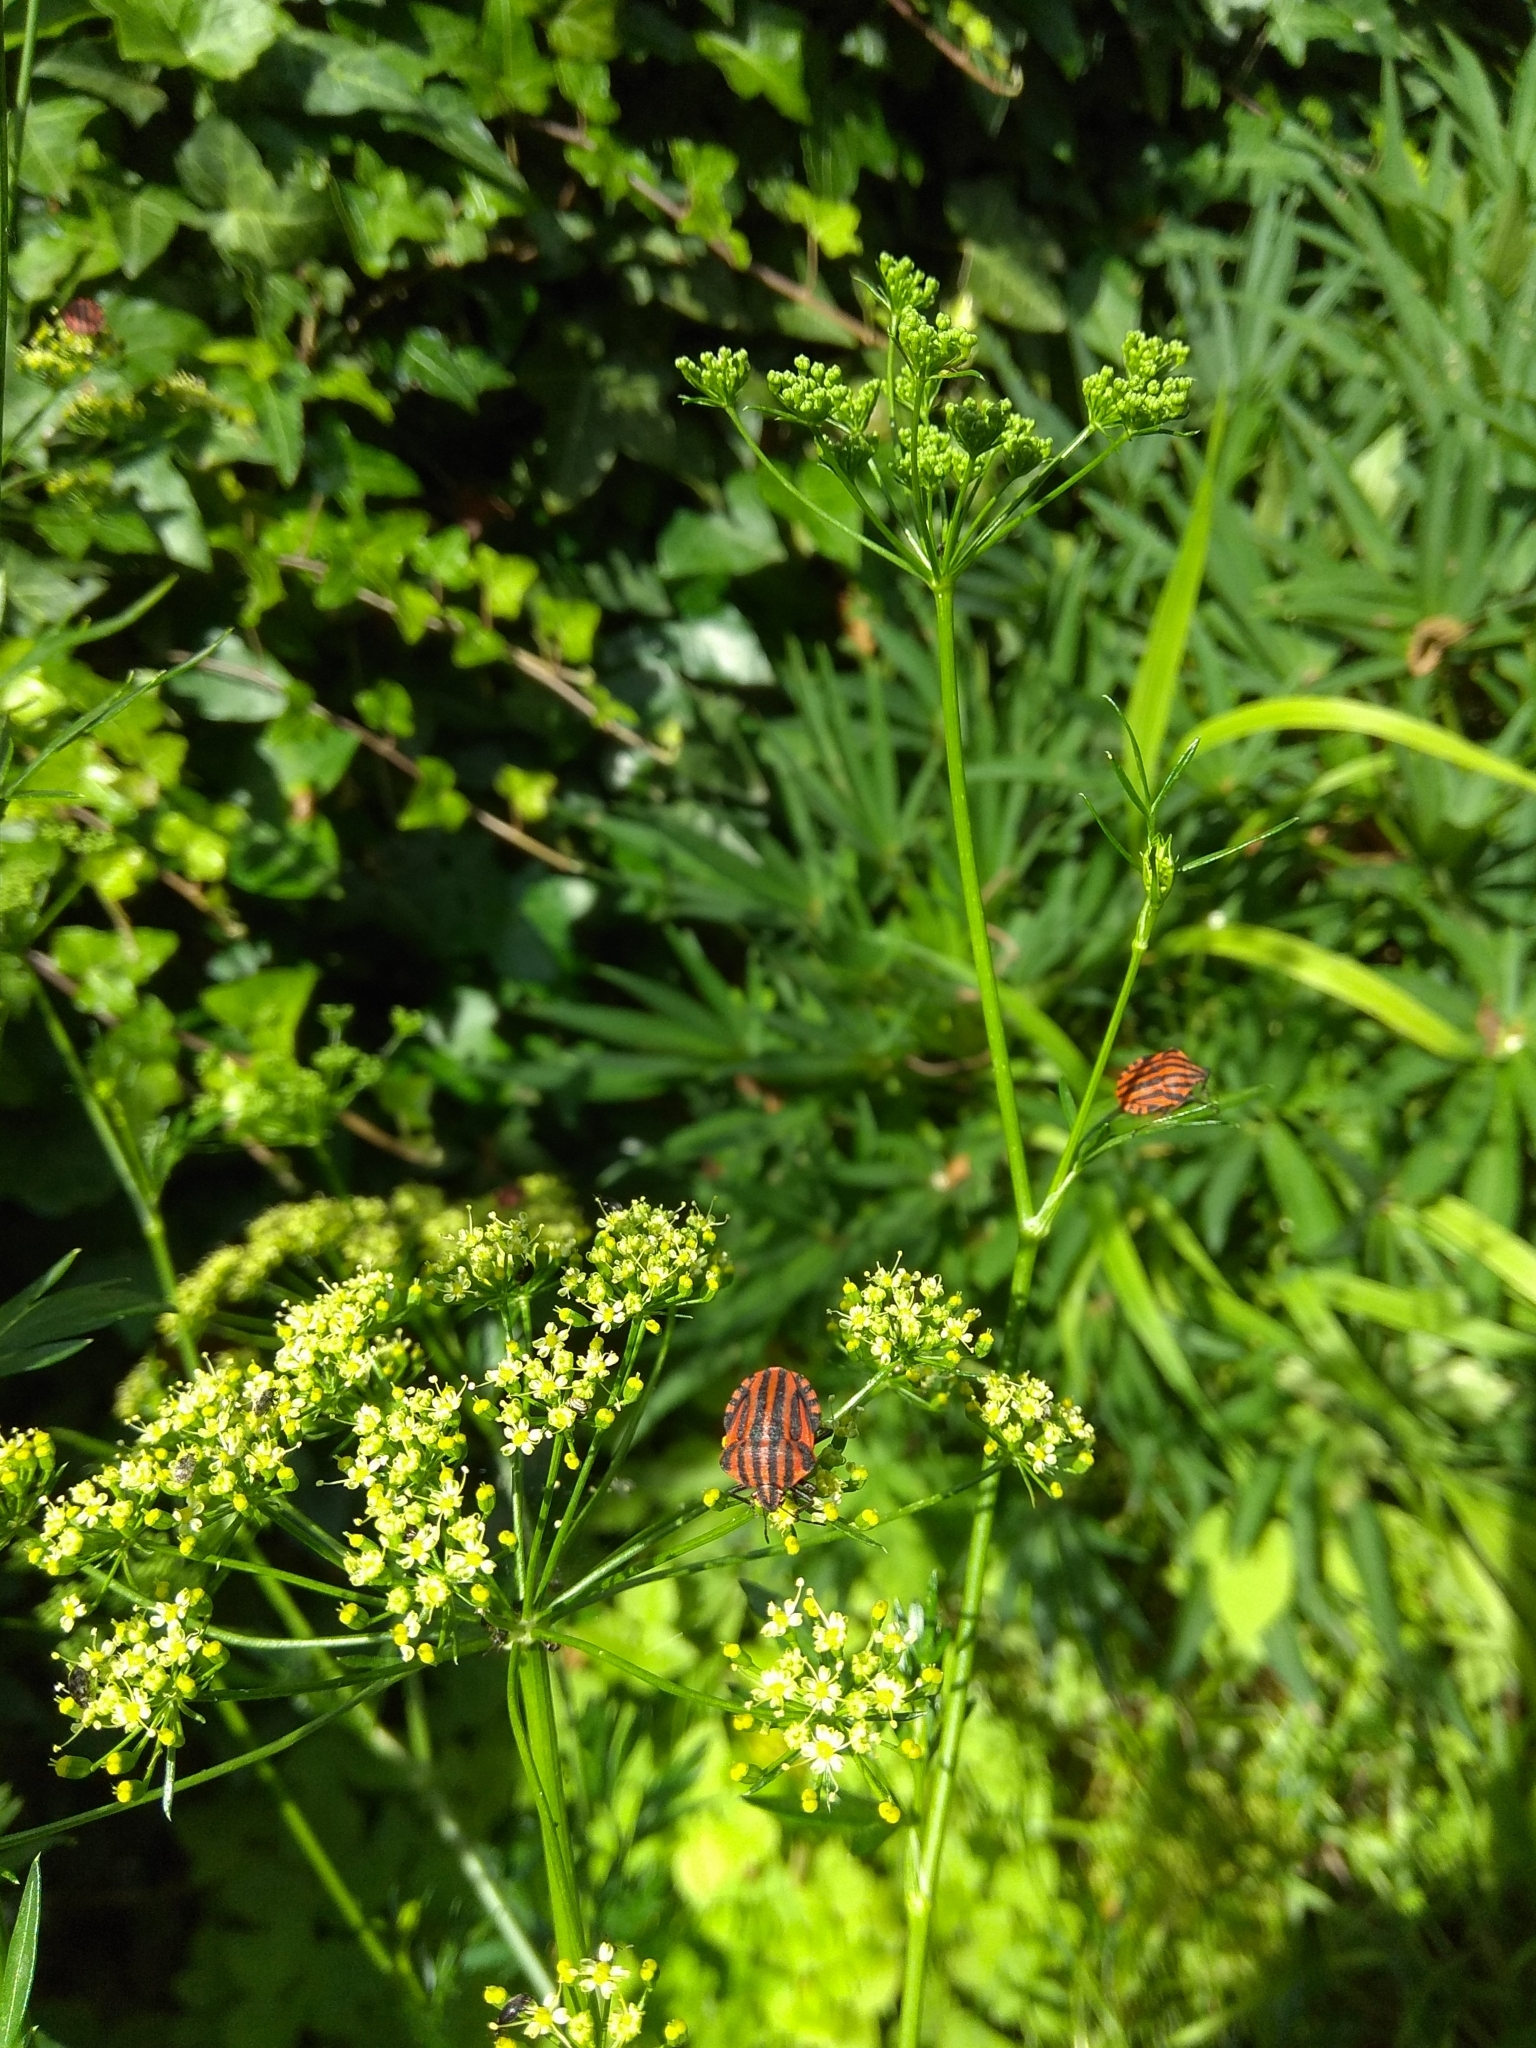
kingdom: Animalia
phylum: Arthropoda
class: Insecta
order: Hemiptera
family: Pentatomidae
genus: Graphosoma
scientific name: Graphosoma italicum
